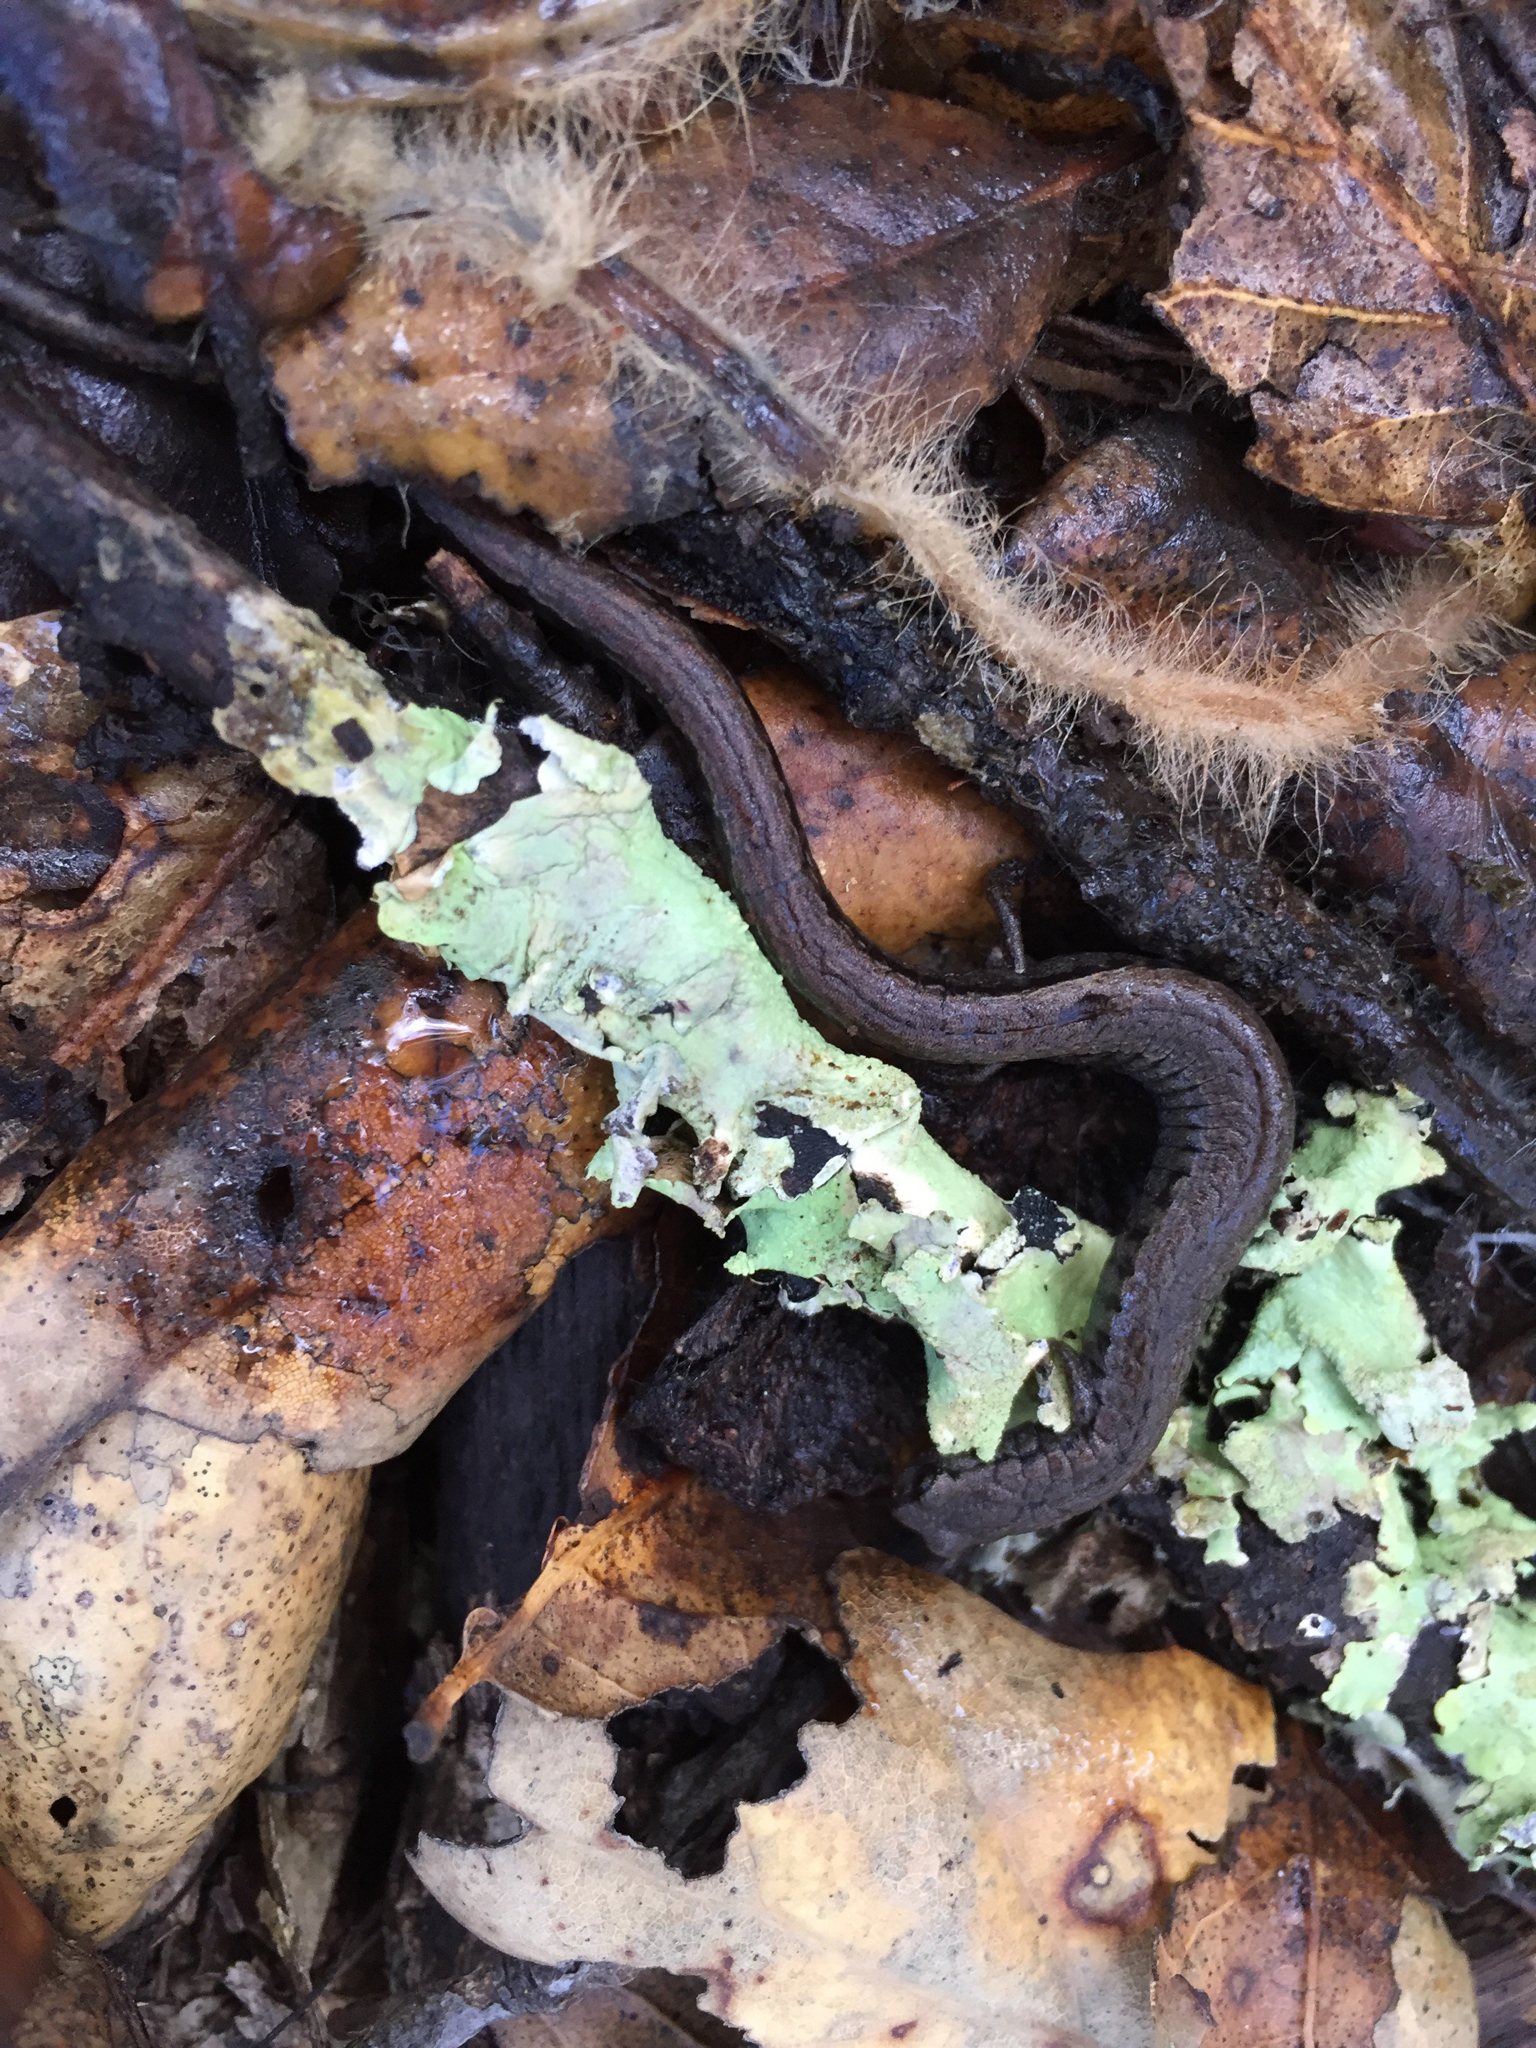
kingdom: Animalia
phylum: Chordata
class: Amphibia
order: Caudata
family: Plethodontidae
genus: Batrachoseps
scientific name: Batrachoseps attenuatus
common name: California slender salamander
